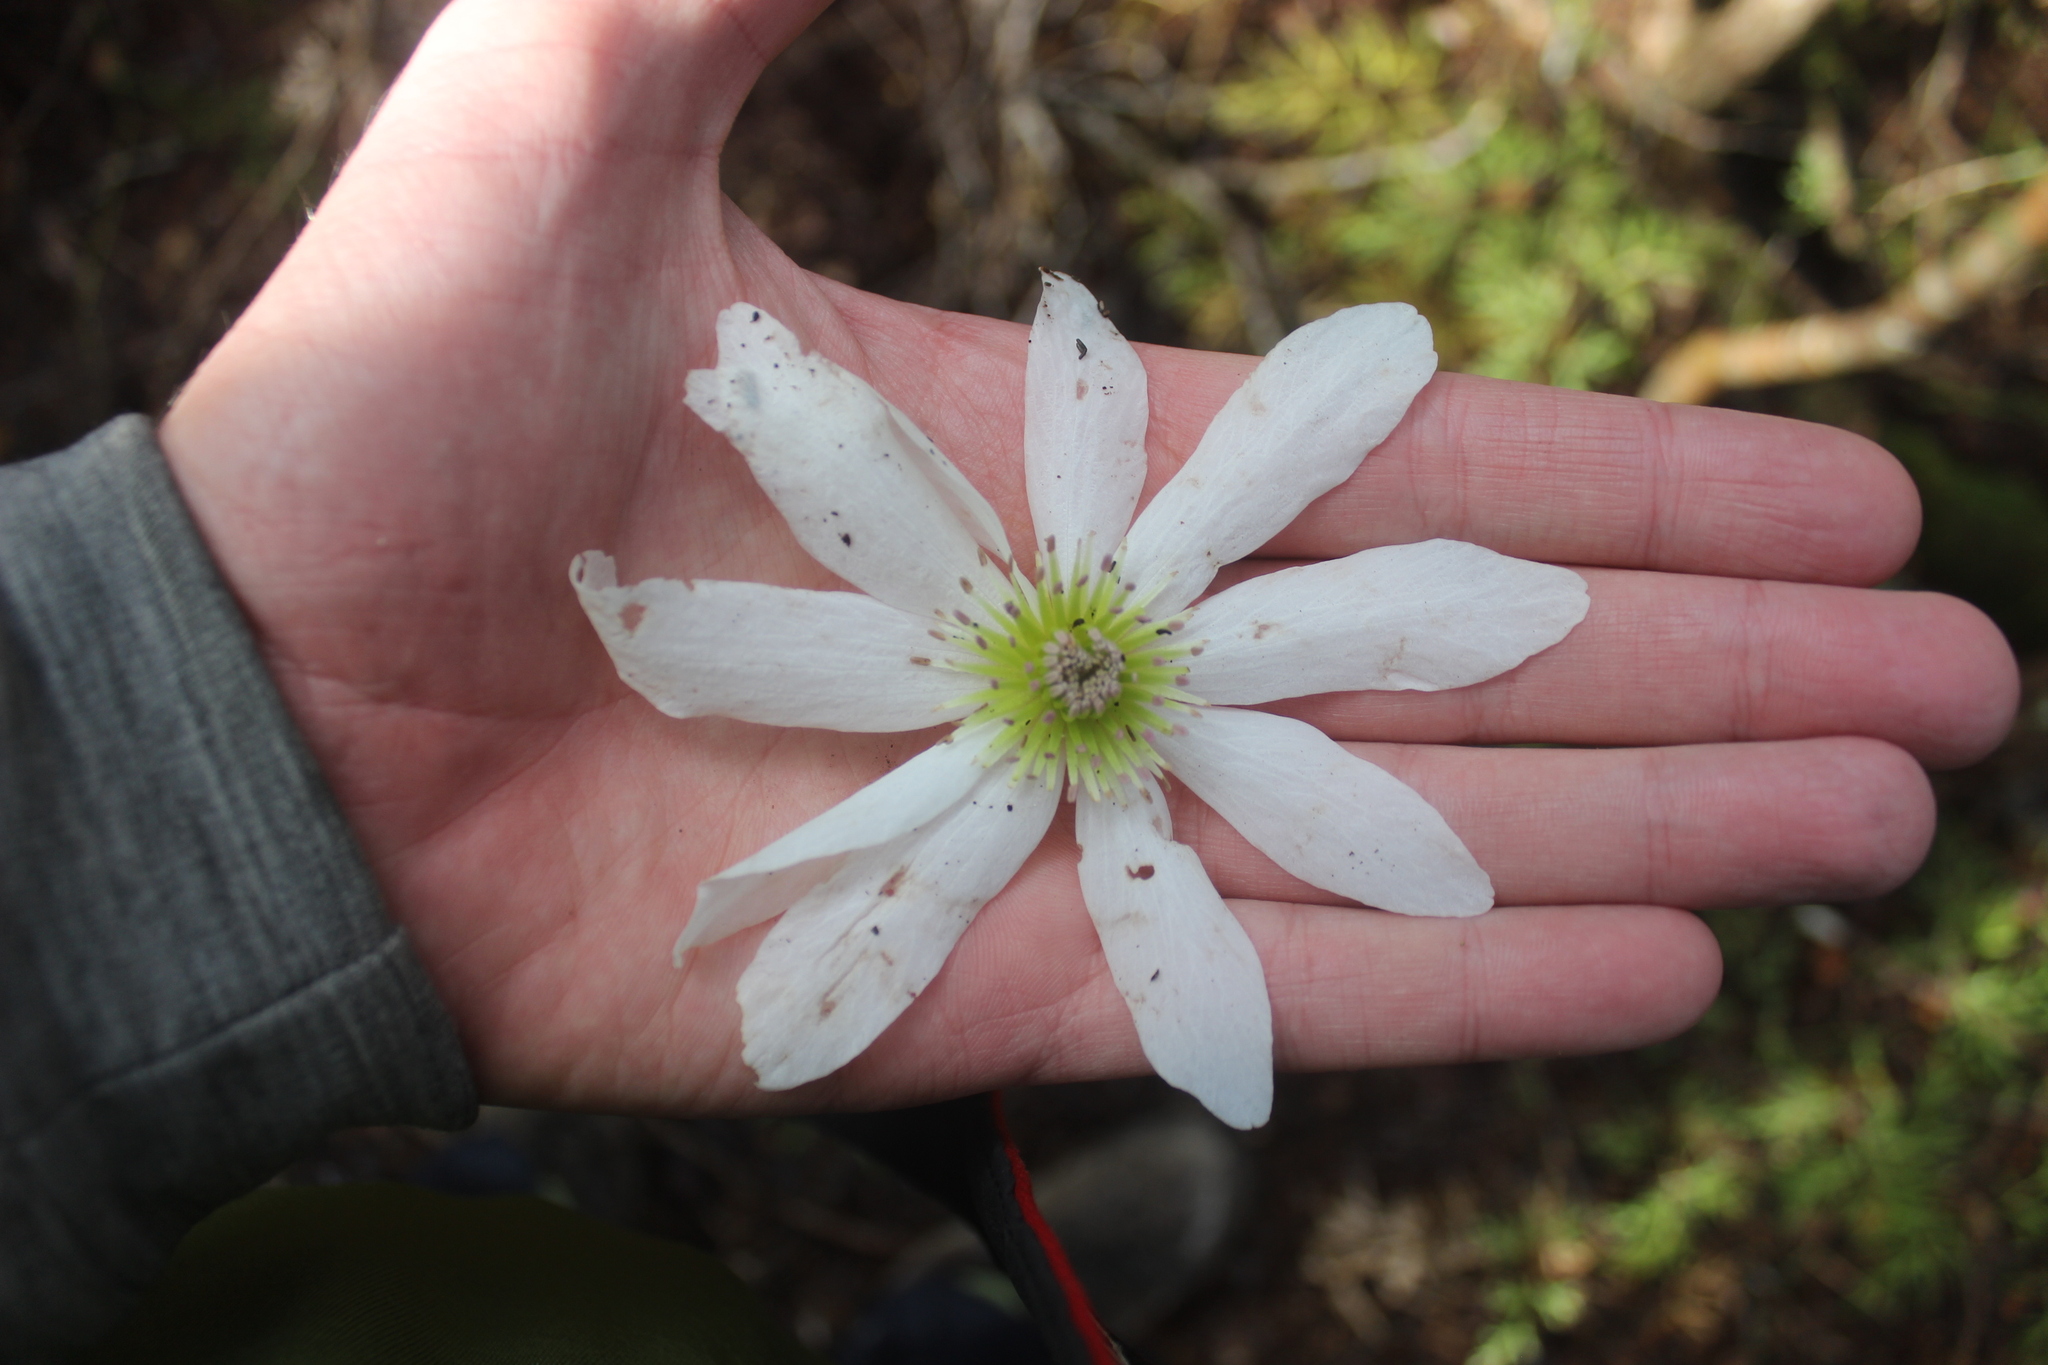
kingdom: Plantae
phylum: Tracheophyta
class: Magnoliopsida
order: Ranunculales
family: Ranunculaceae
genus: Clematis
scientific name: Clematis paniculata
